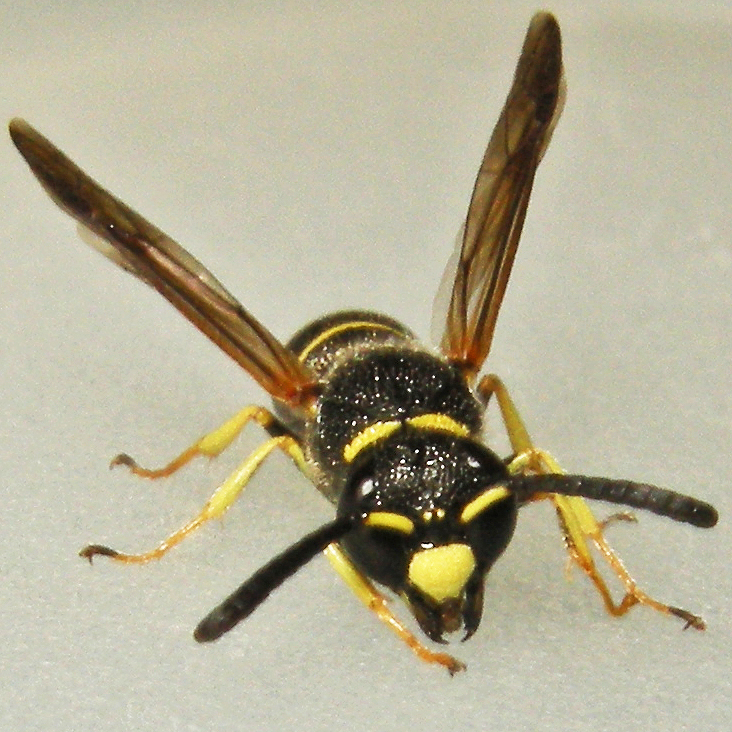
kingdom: Animalia
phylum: Arthropoda
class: Insecta
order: Hymenoptera
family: Eumenidae
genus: Euodynerus
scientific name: Euodynerus foraminatus
